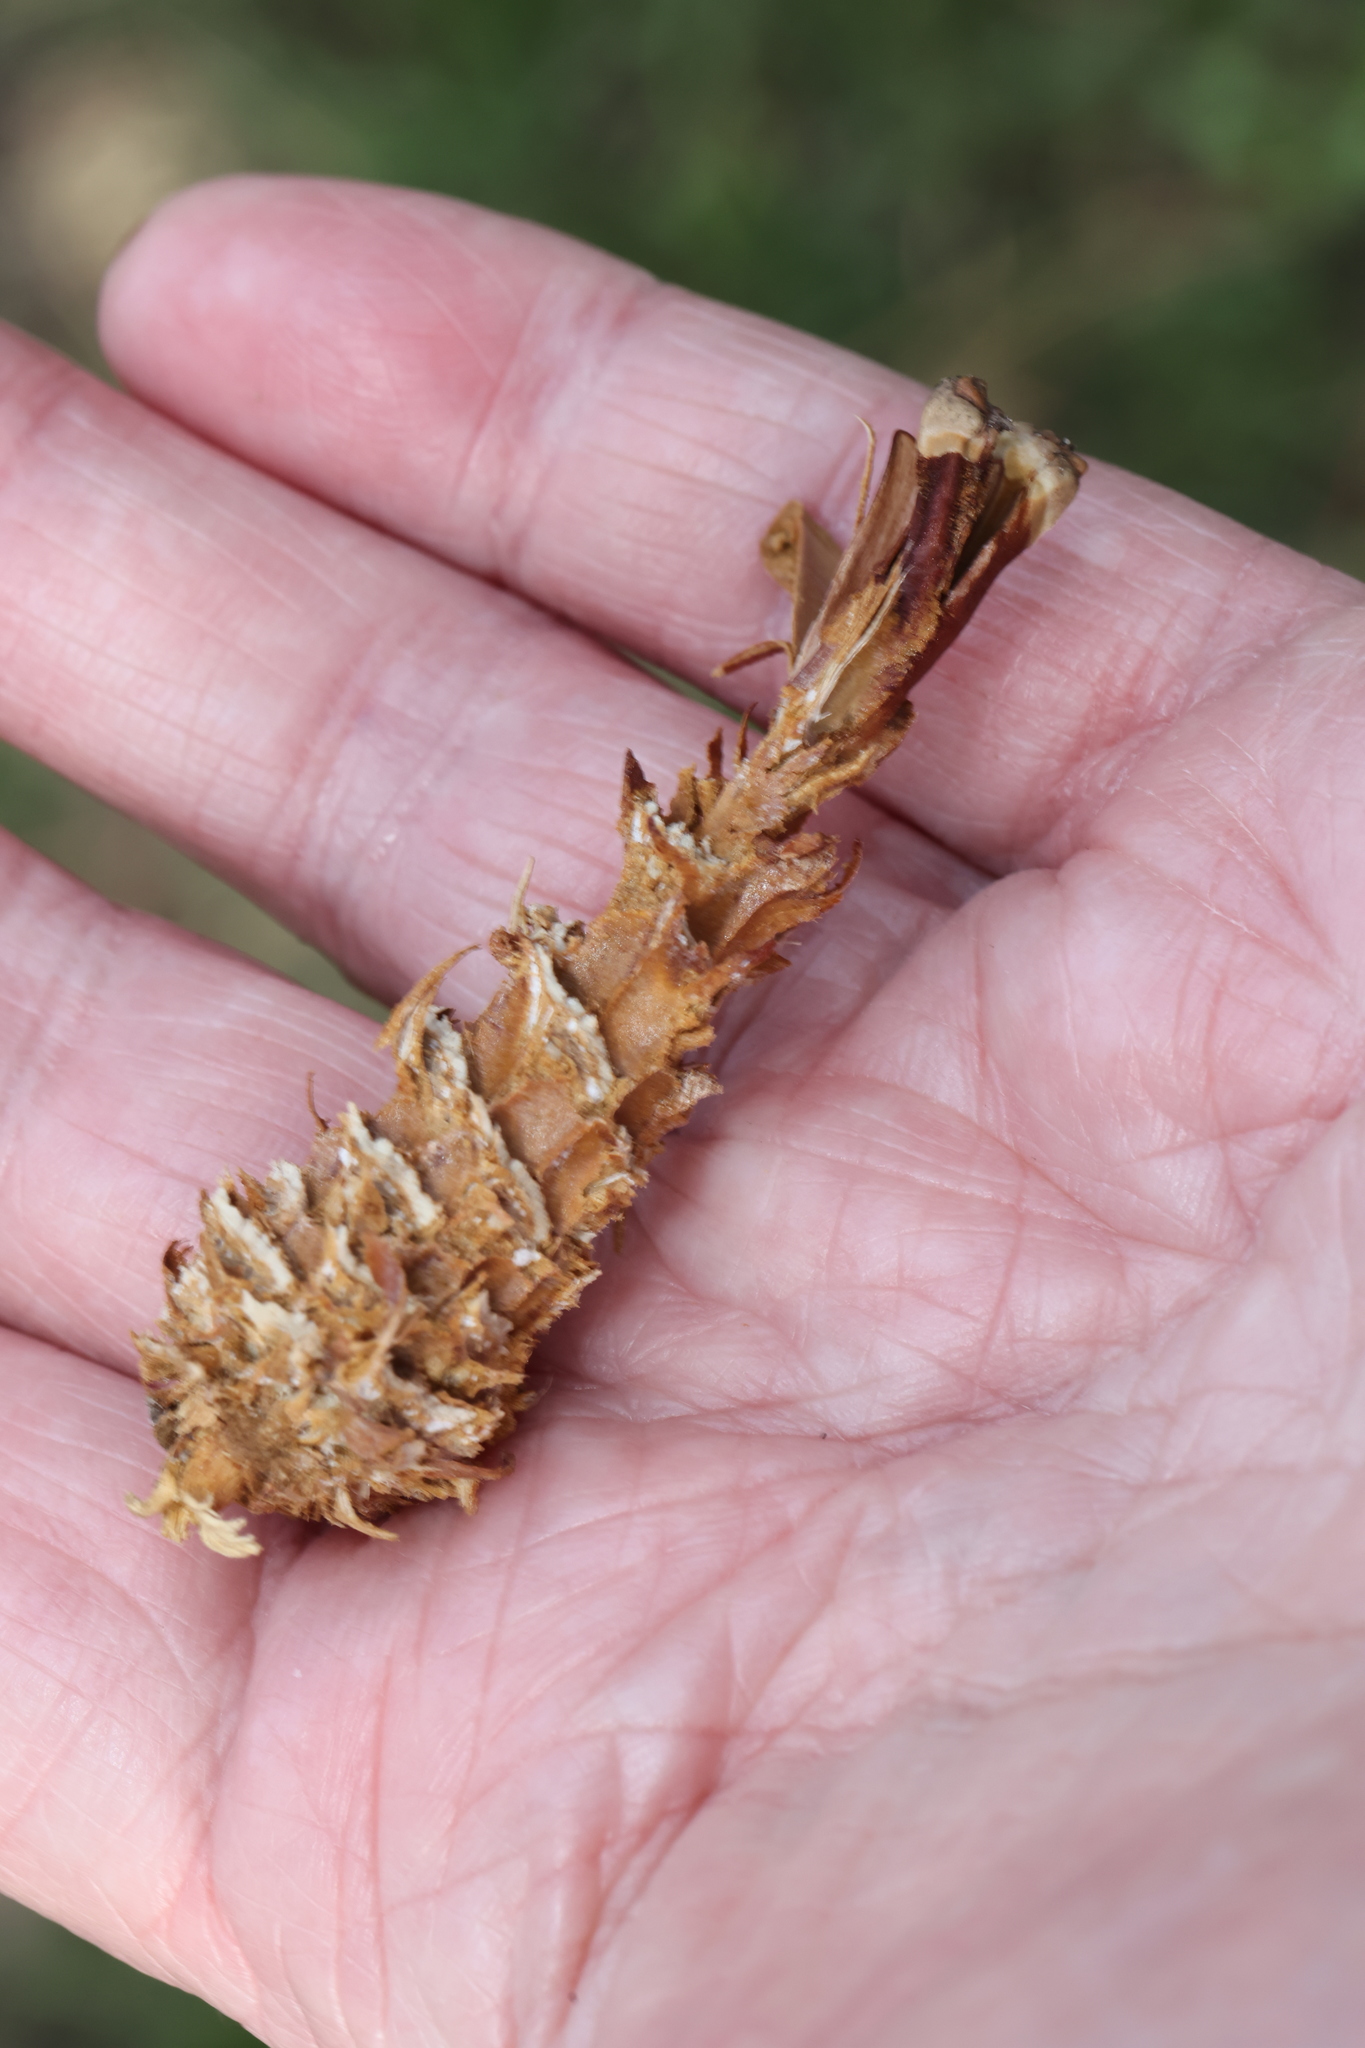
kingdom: Animalia
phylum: Chordata
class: Mammalia
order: Rodentia
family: Sciuridae
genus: Sciurus
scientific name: Sciurus carolinensis
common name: Eastern gray squirrel
